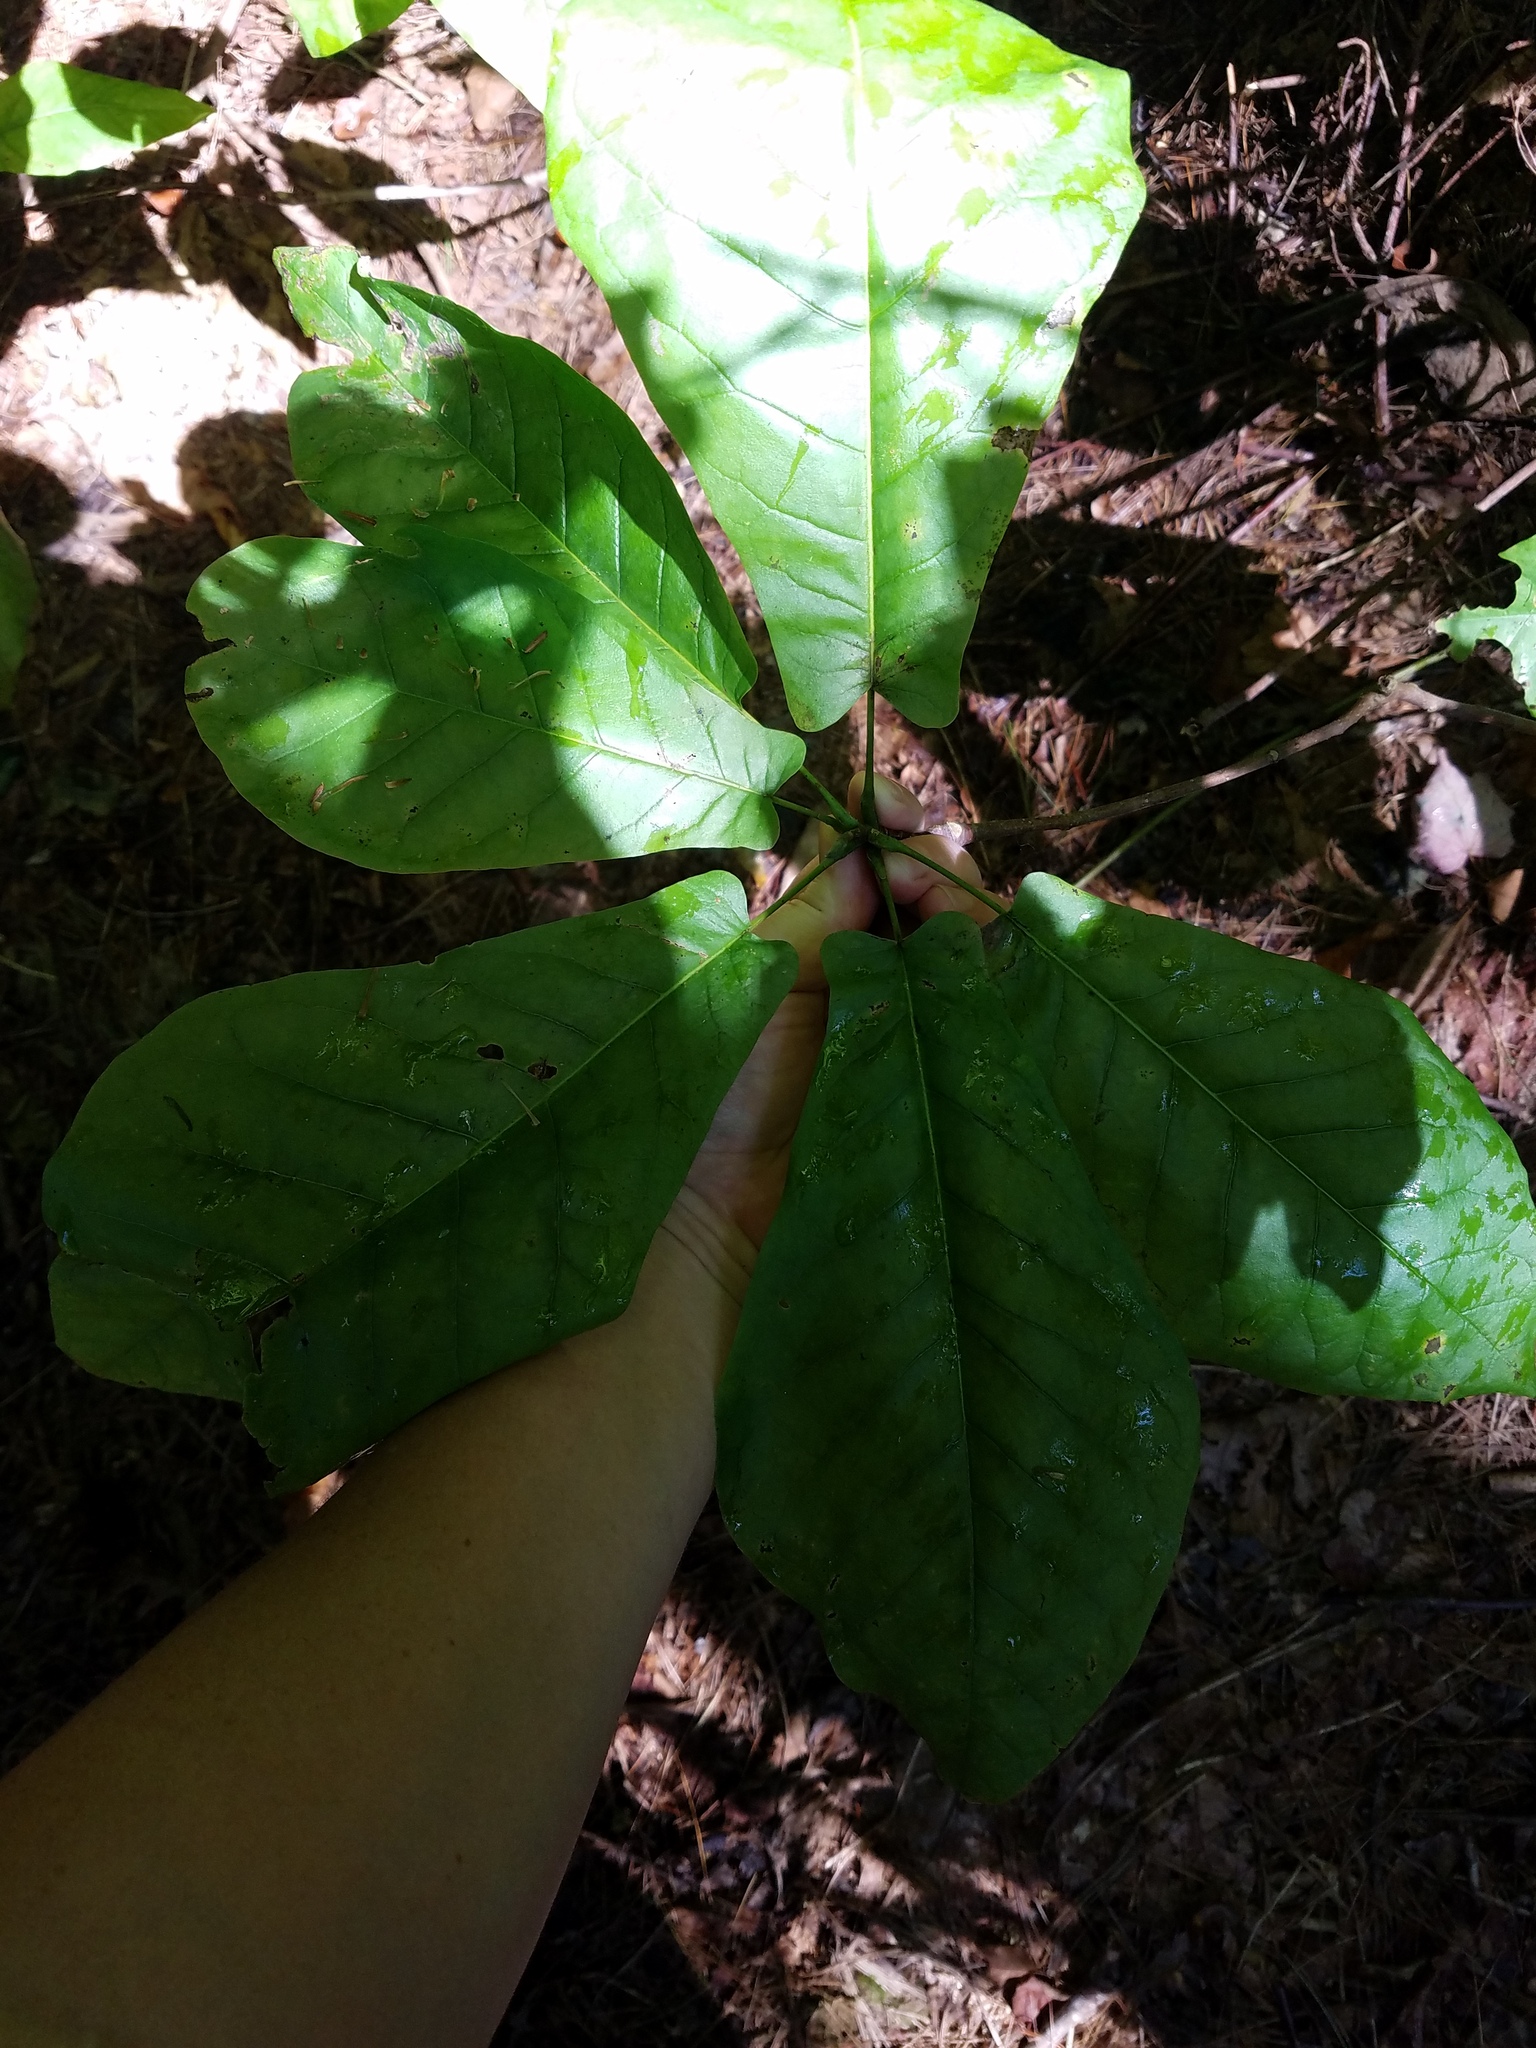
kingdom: Plantae
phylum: Tracheophyta
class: Magnoliopsida
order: Magnoliales
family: Magnoliaceae
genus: Magnolia
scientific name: Magnolia fraseri
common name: Fraser's magnolia
